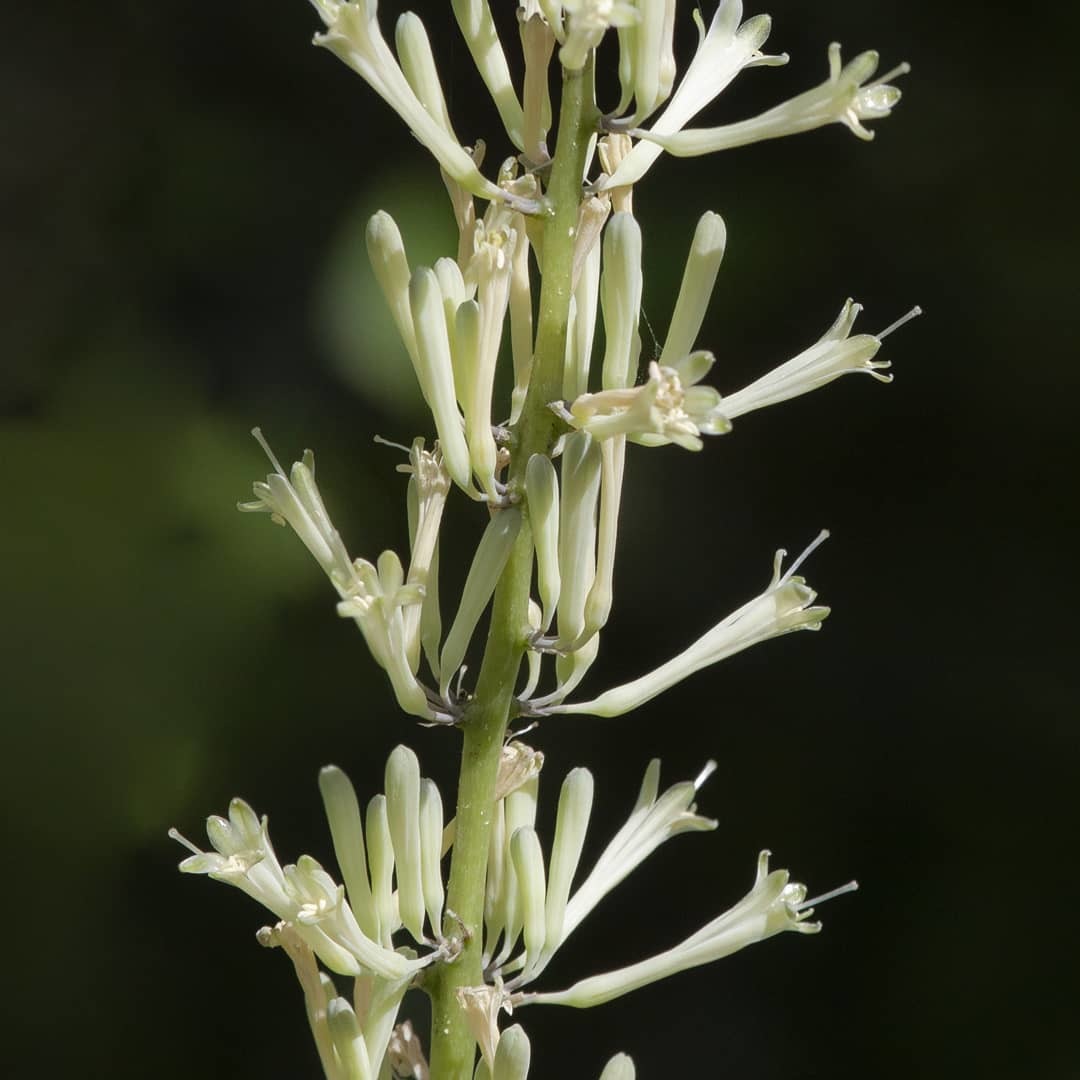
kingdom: Plantae
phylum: Tracheophyta
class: Liliopsida
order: Asparagales
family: Asparagaceae
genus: Dracaena
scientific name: Dracaena terniflora
